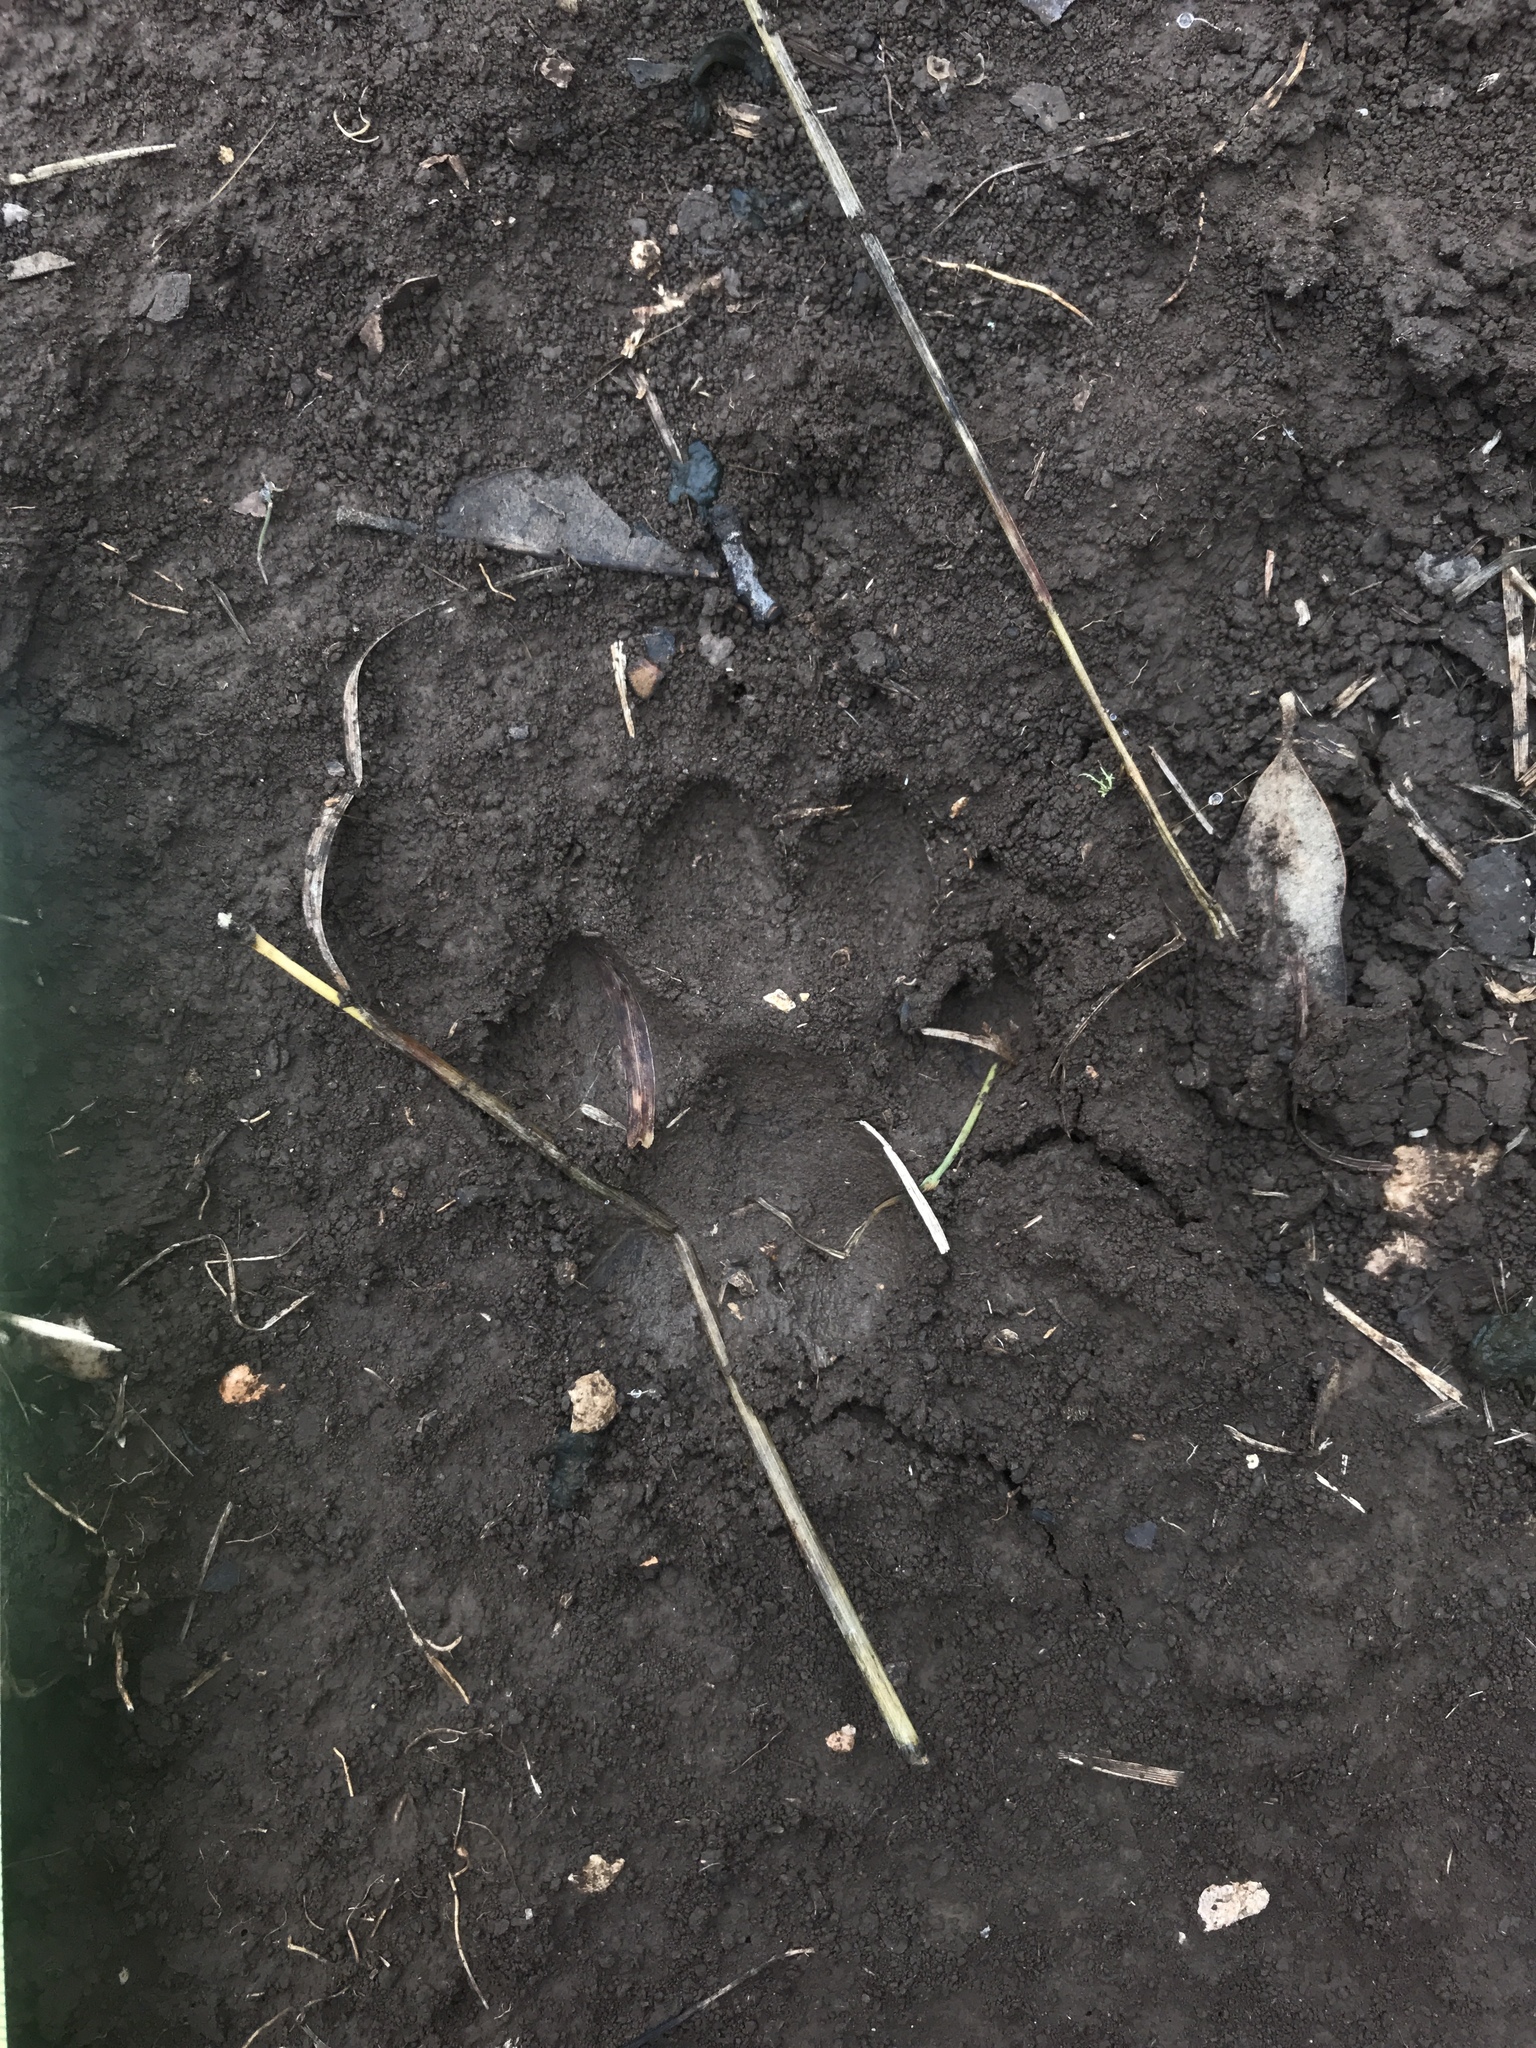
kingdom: Animalia
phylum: Chordata
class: Mammalia
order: Carnivora
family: Canidae
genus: Urocyon
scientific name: Urocyon cinereoargenteus
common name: Gray fox
